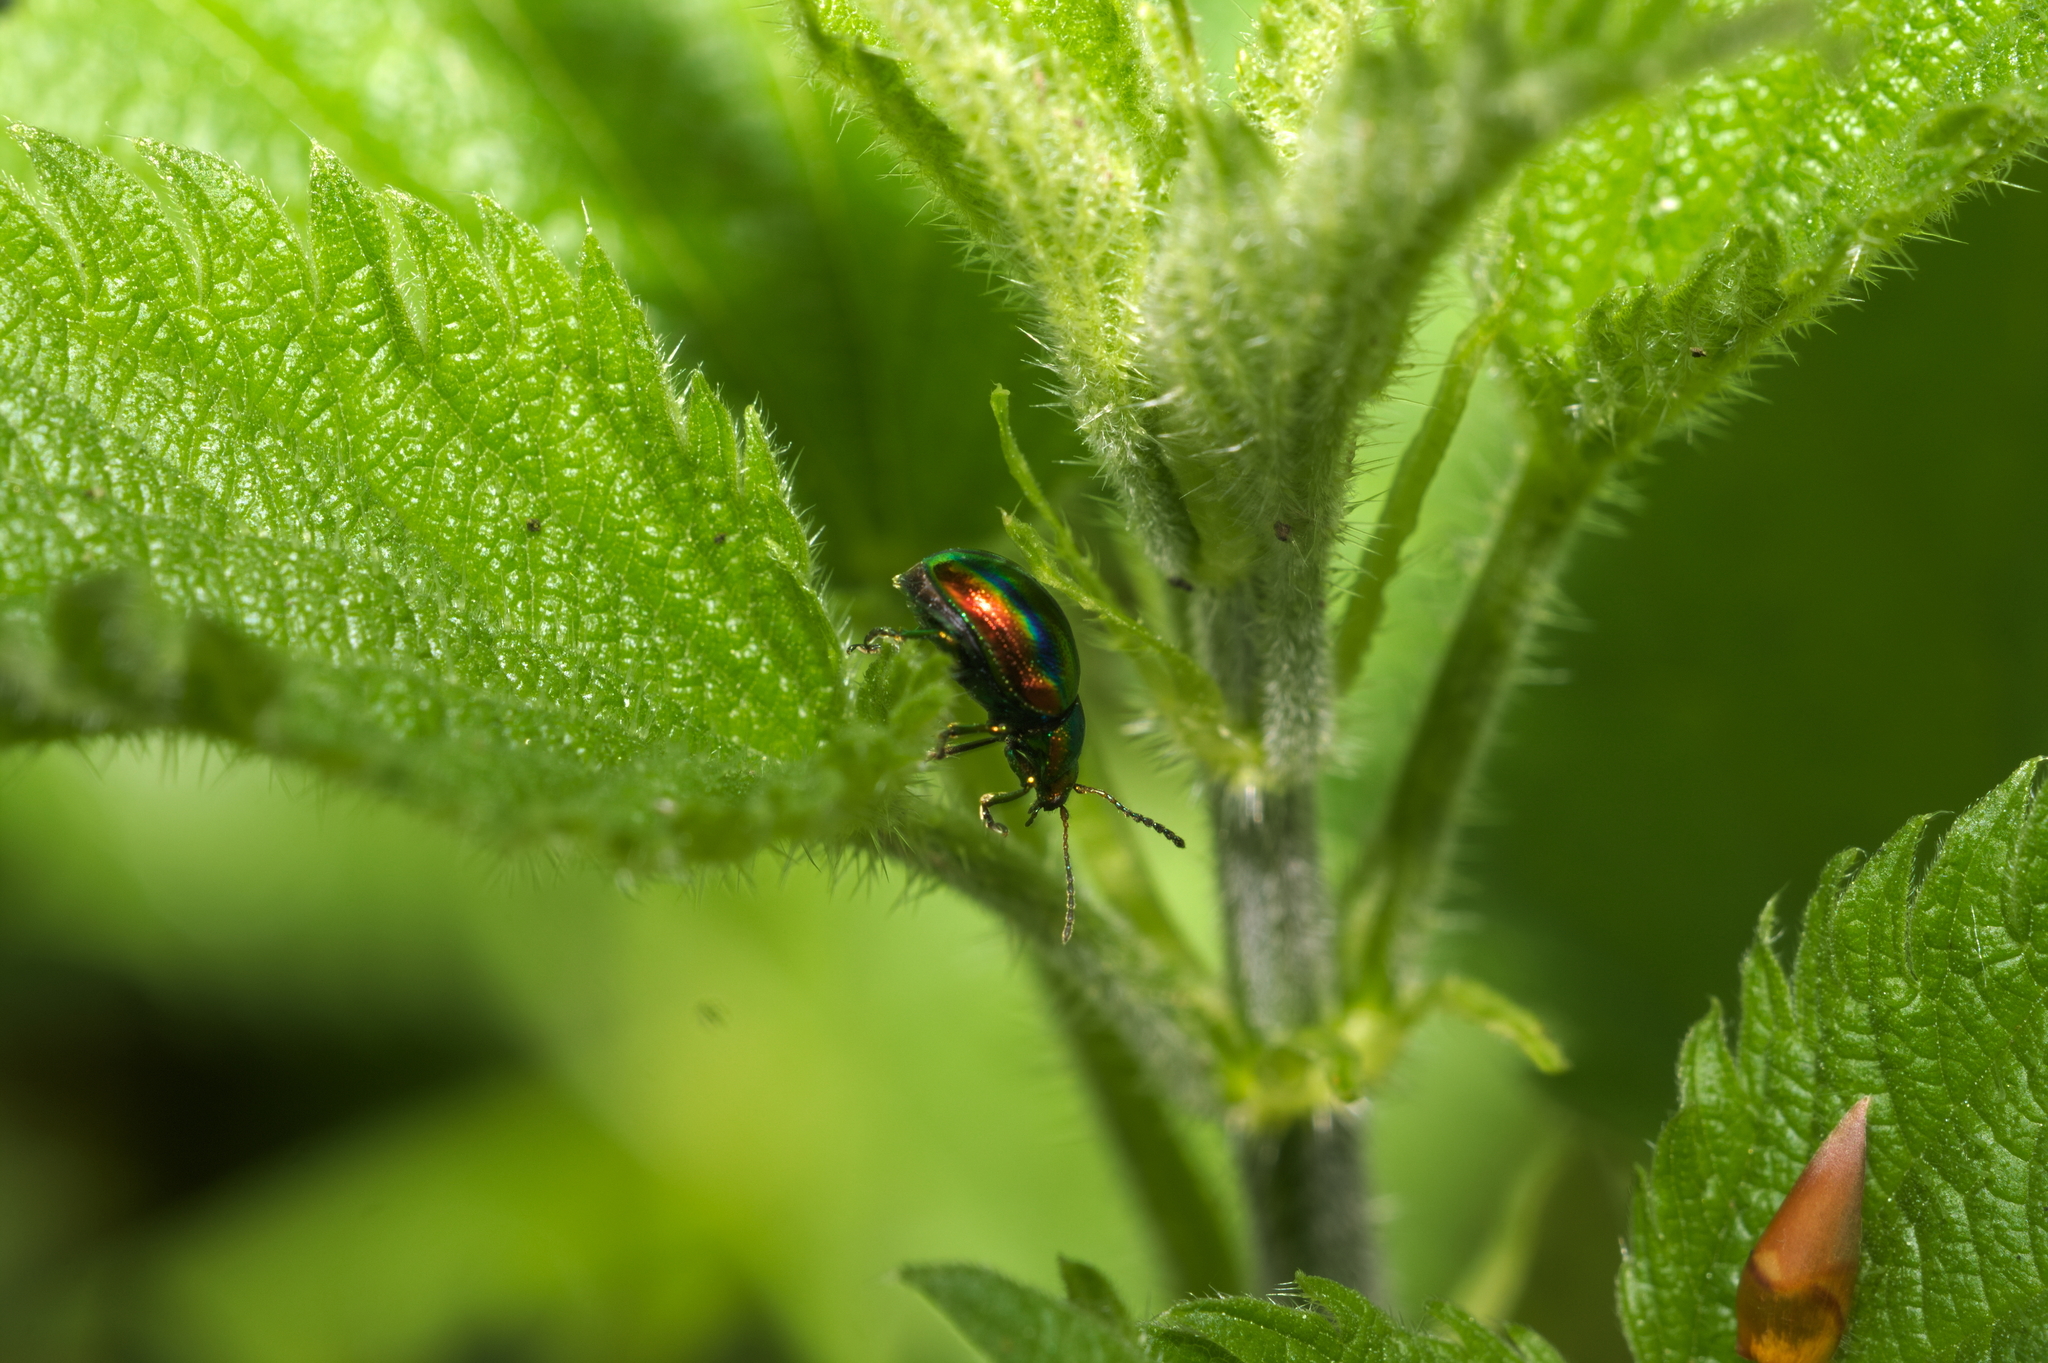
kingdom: Animalia
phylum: Arthropoda
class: Insecta
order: Coleoptera
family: Chrysomelidae
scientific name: Chrysomelidae
